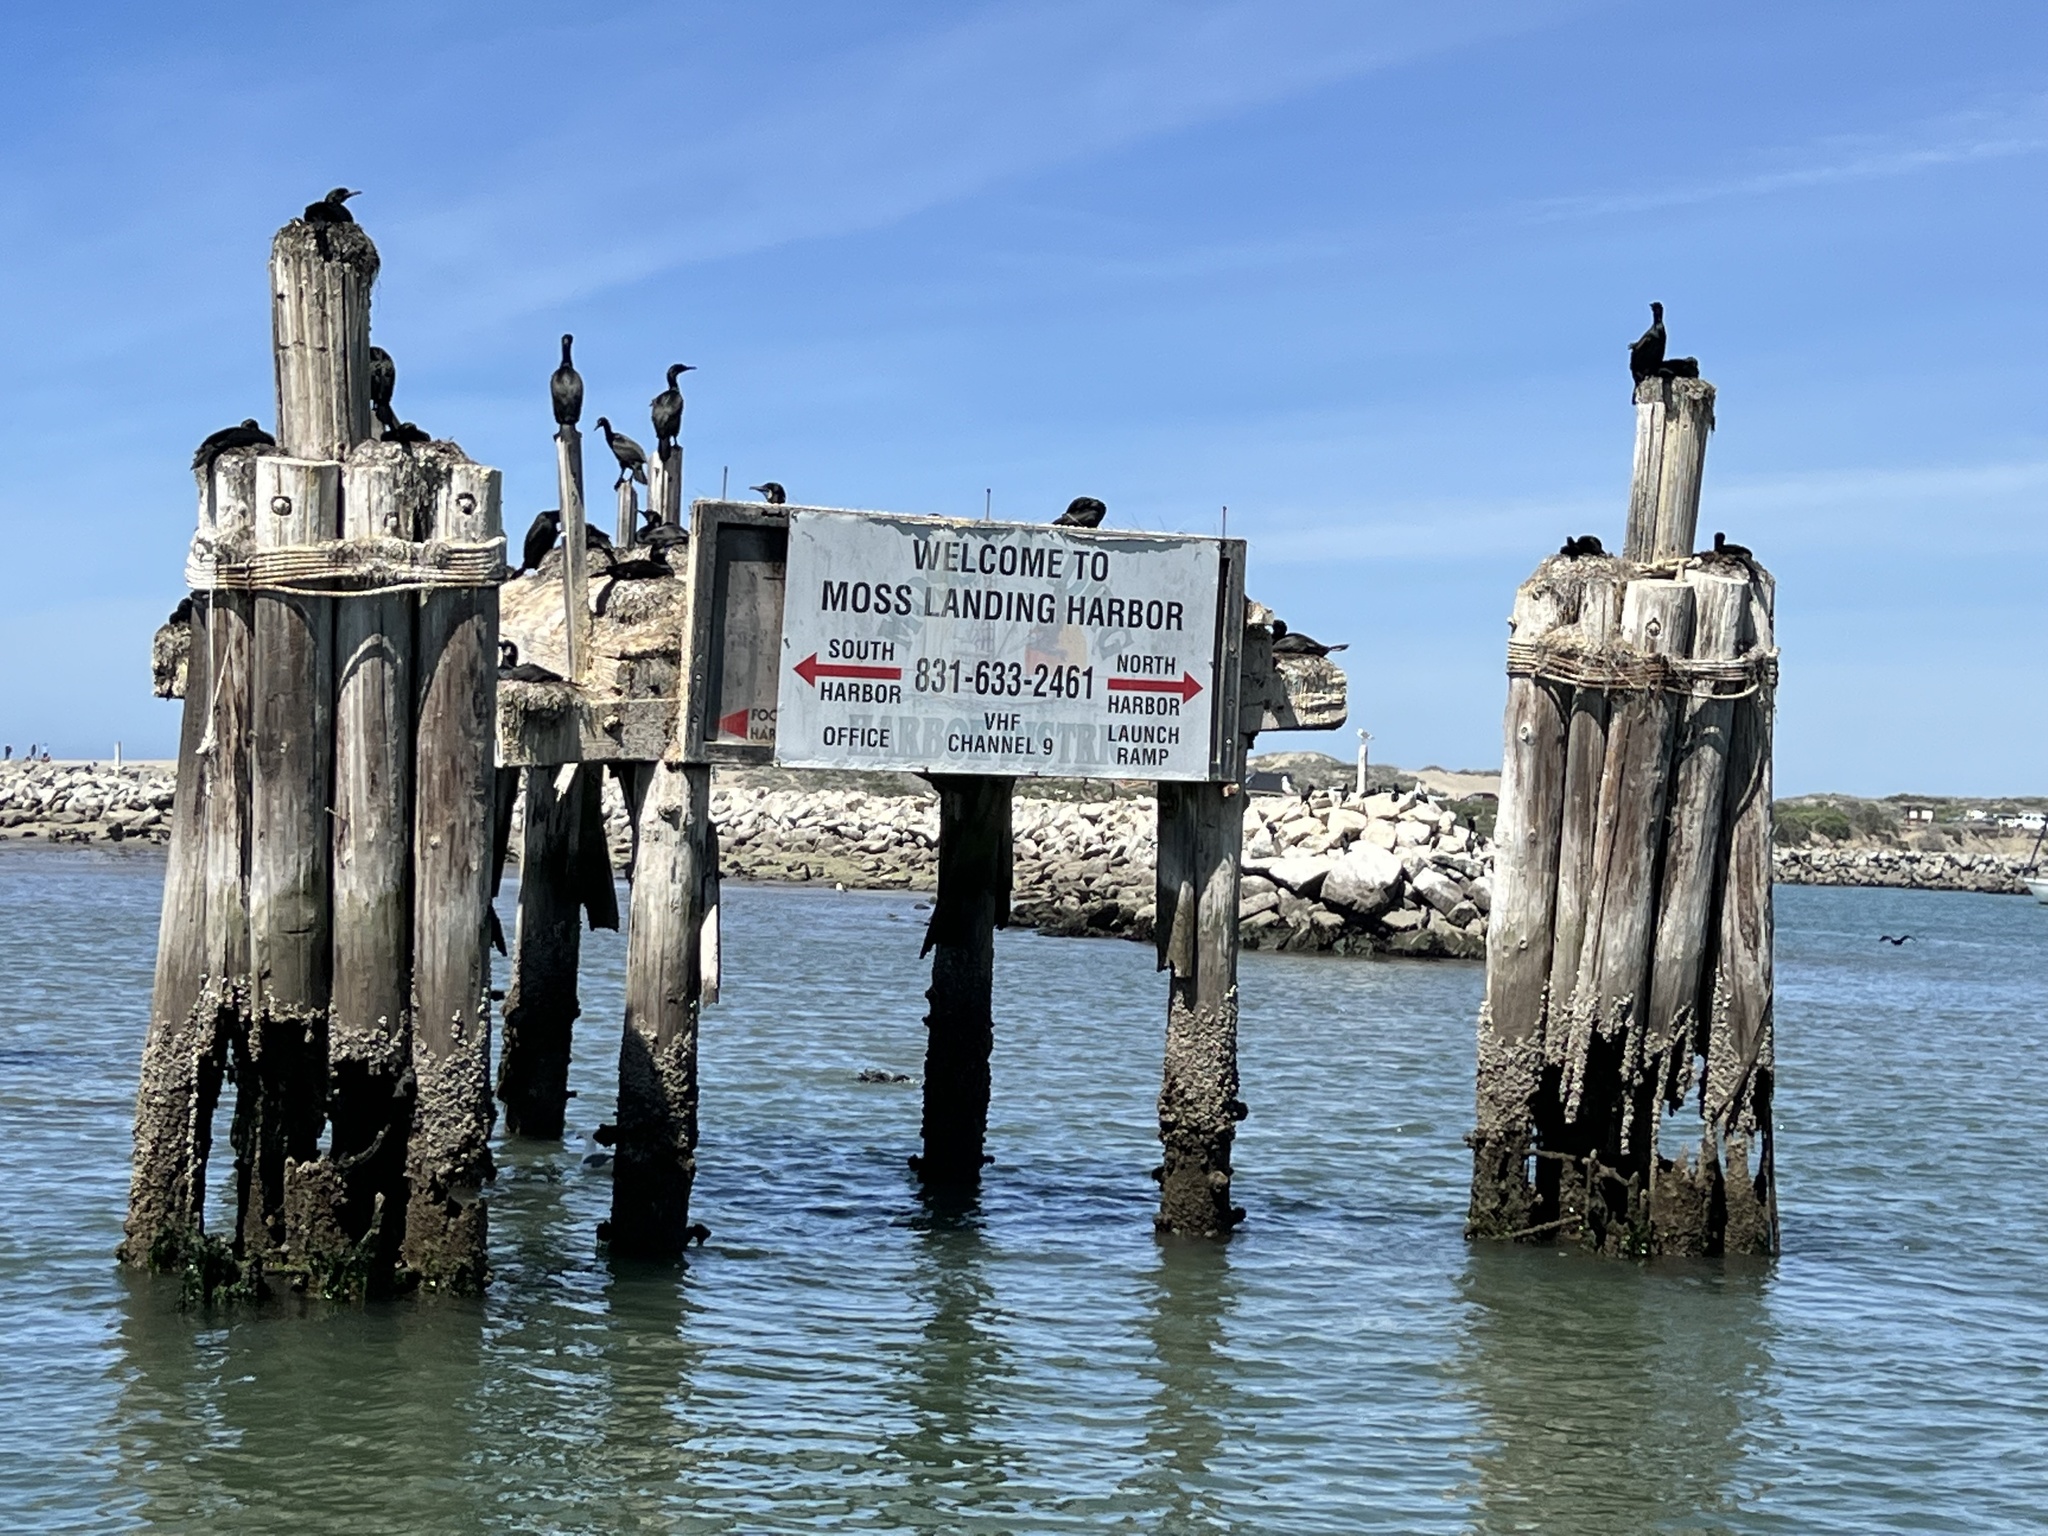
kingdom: Animalia
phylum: Chordata
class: Aves
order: Suliformes
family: Phalacrocoracidae
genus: Urile
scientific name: Urile penicillatus
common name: Brandt's cormorant
